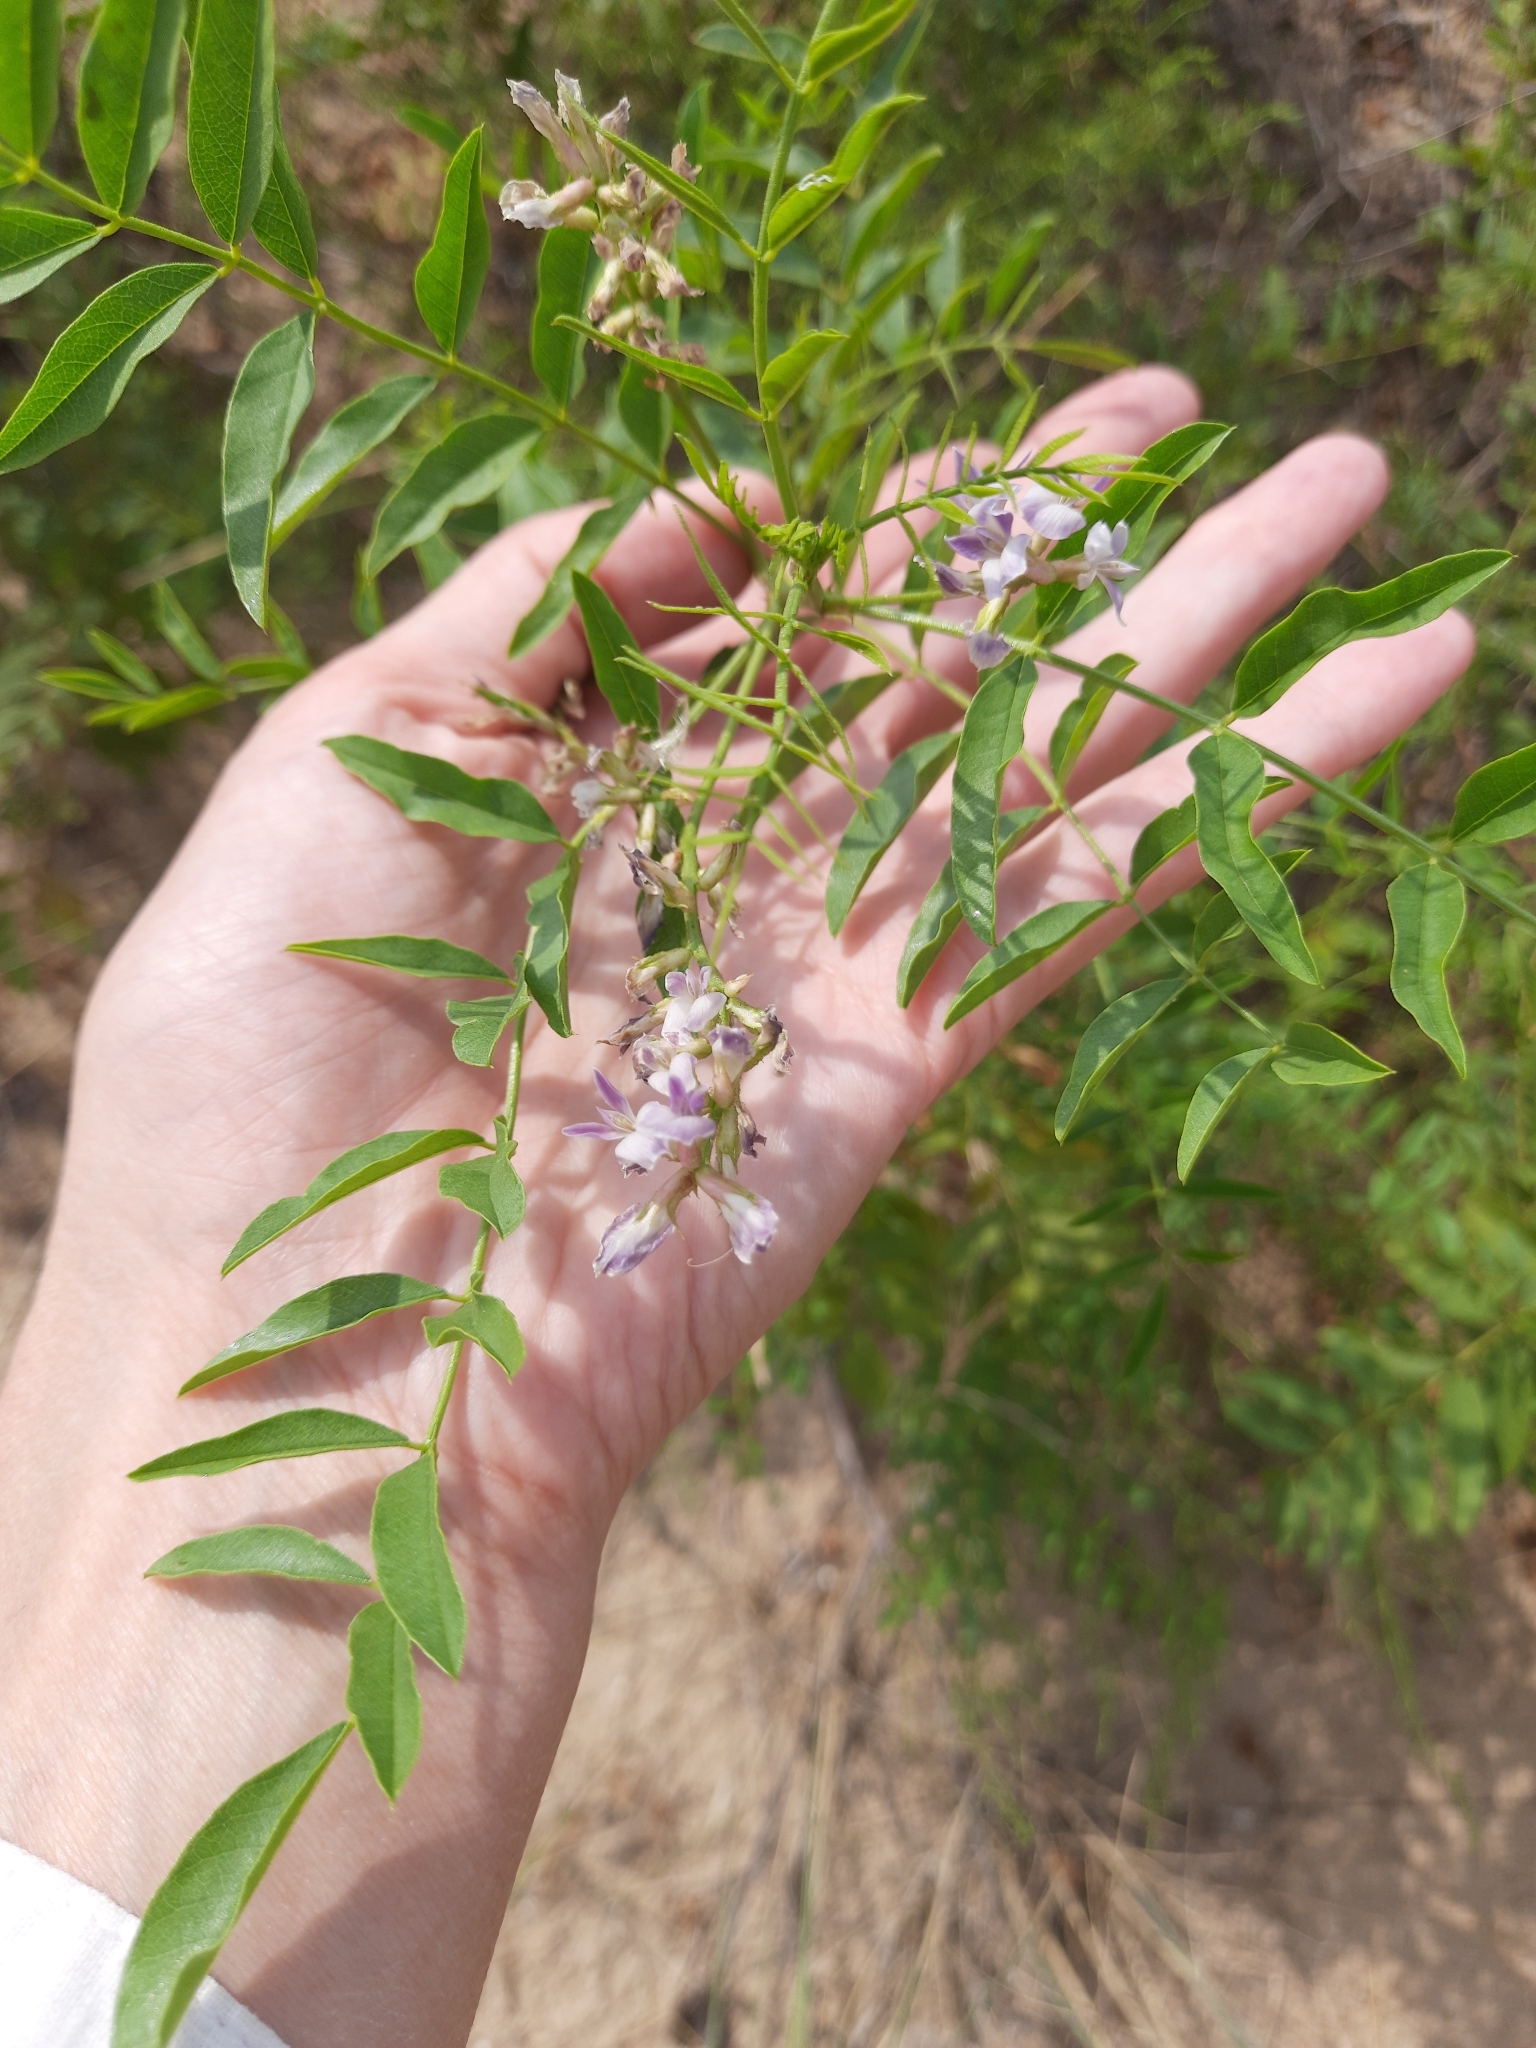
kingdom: Plantae
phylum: Tracheophyta
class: Magnoliopsida
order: Fabales
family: Fabaceae
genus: Glycyrrhiza
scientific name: Glycyrrhiza glabra
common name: Liquorice
